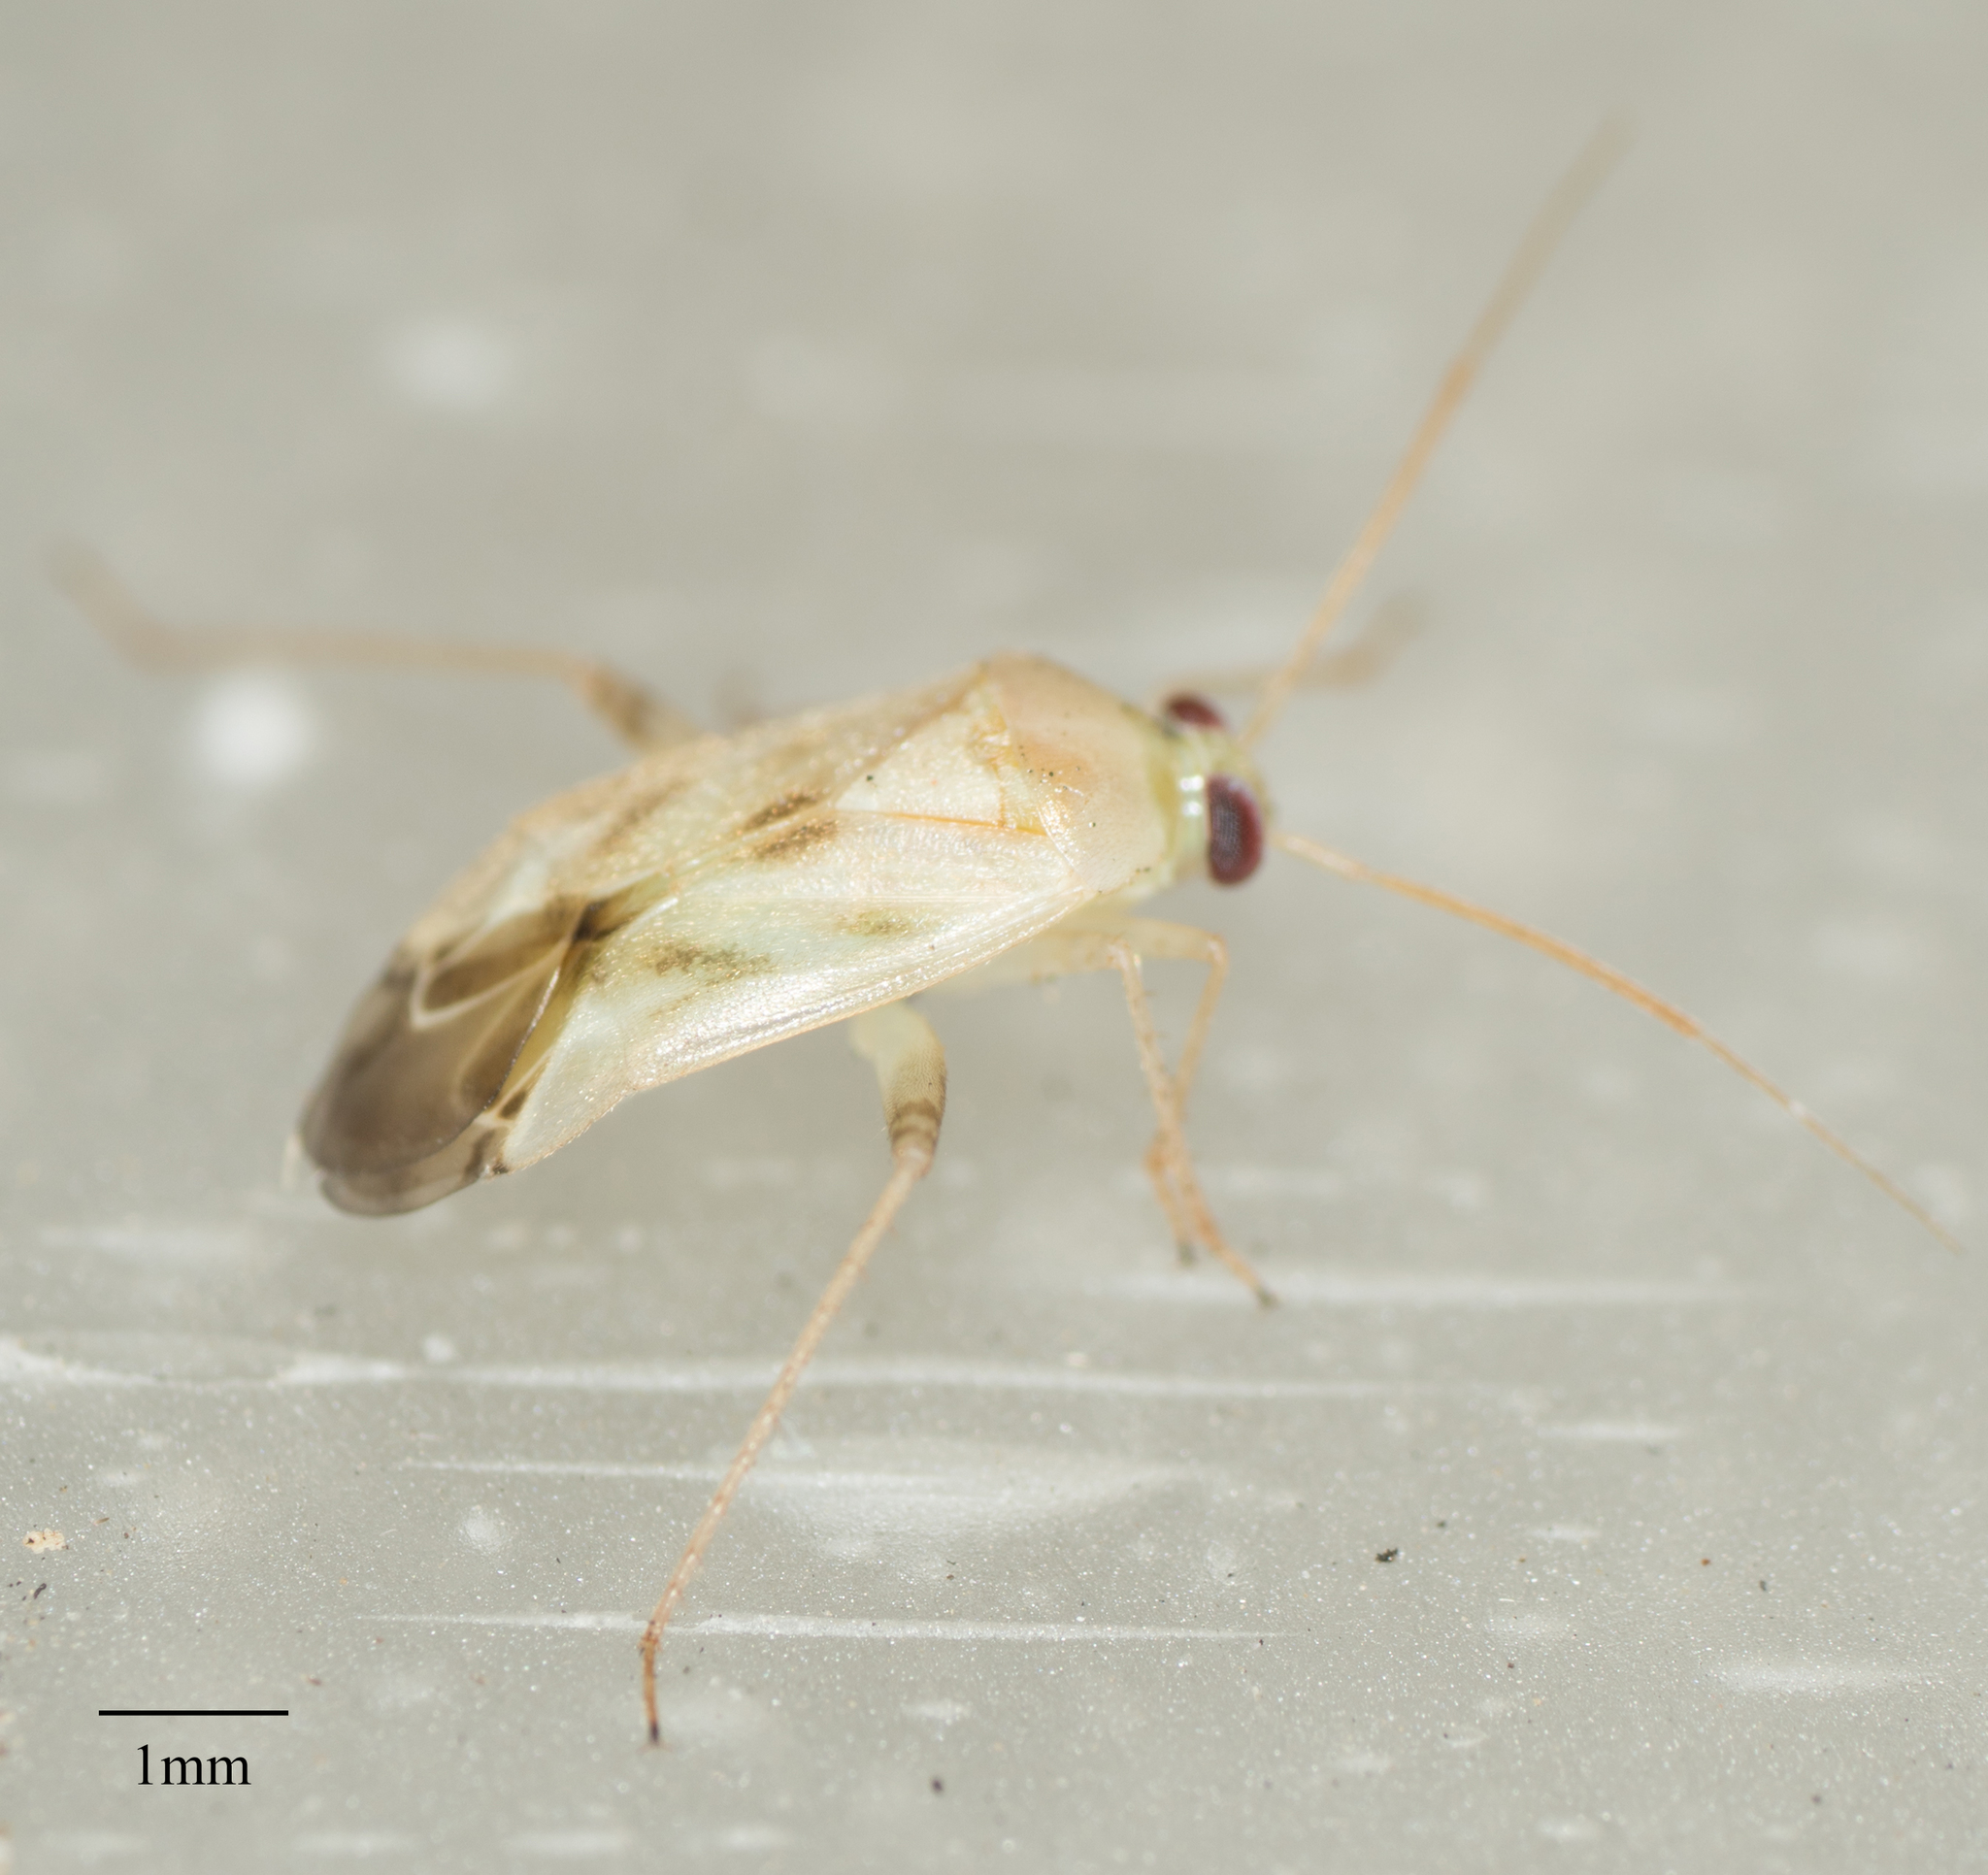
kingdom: Animalia
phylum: Arthropoda
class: Insecta
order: Hemiptera
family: Miridae
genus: Taylorilygus
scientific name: Taylorilygus apicalis
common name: Plant bug
